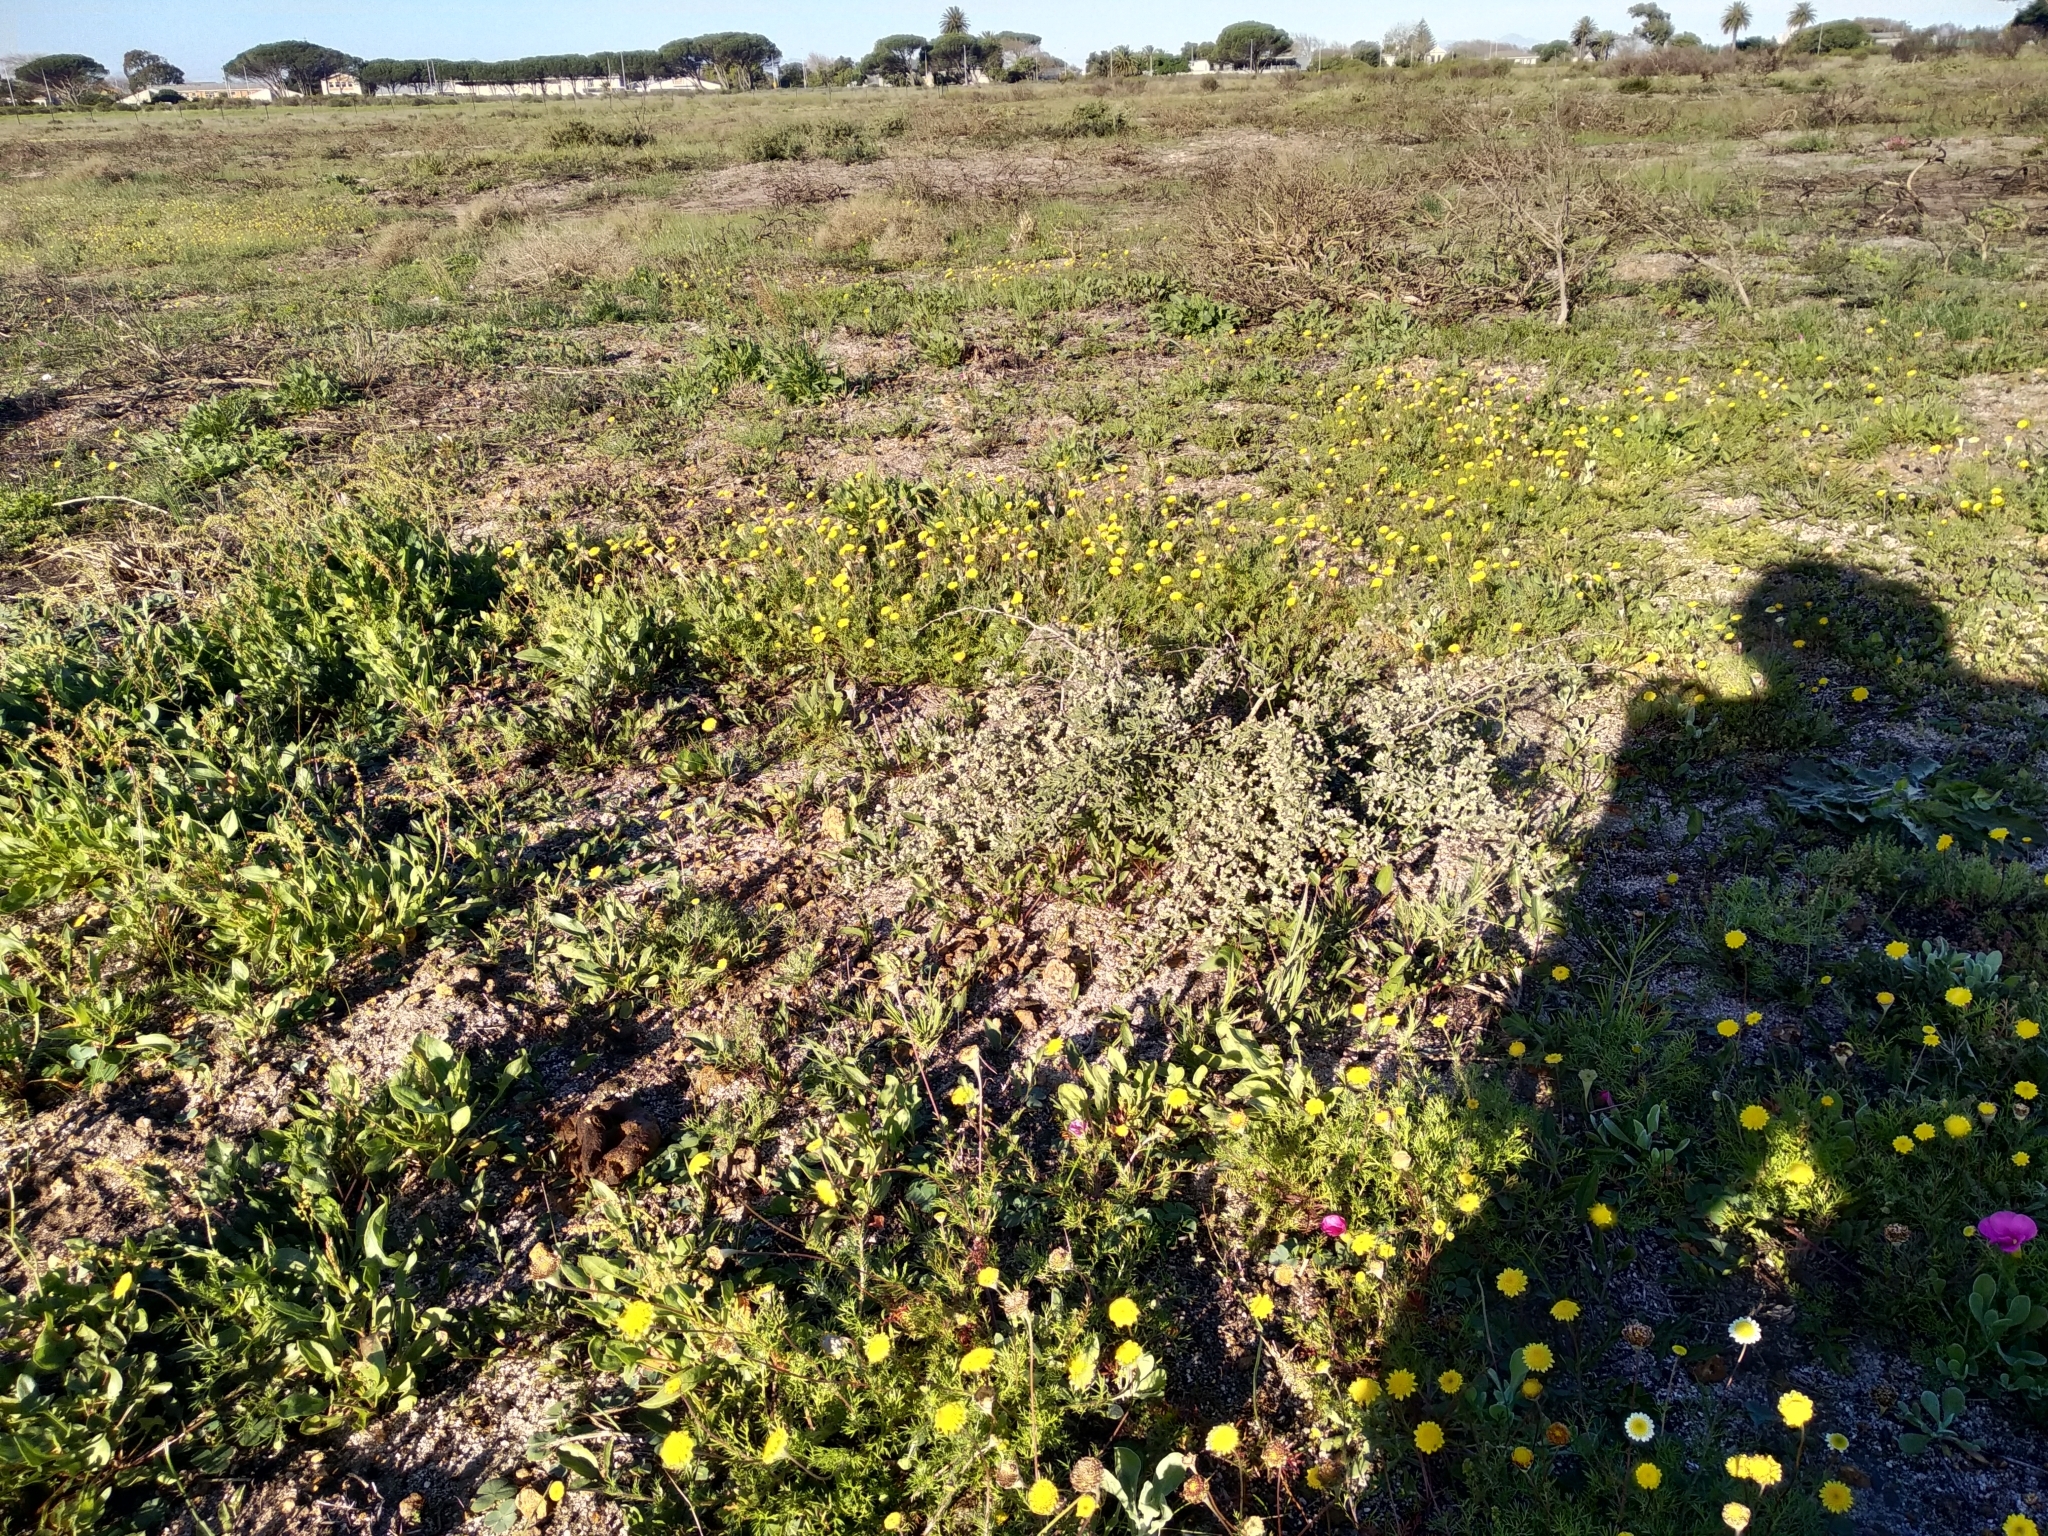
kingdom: Plantae
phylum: Tracheophyta
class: Magnoliopsida
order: Asterales
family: Asteraceae
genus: Cotula
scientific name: Cotula pruinosa
